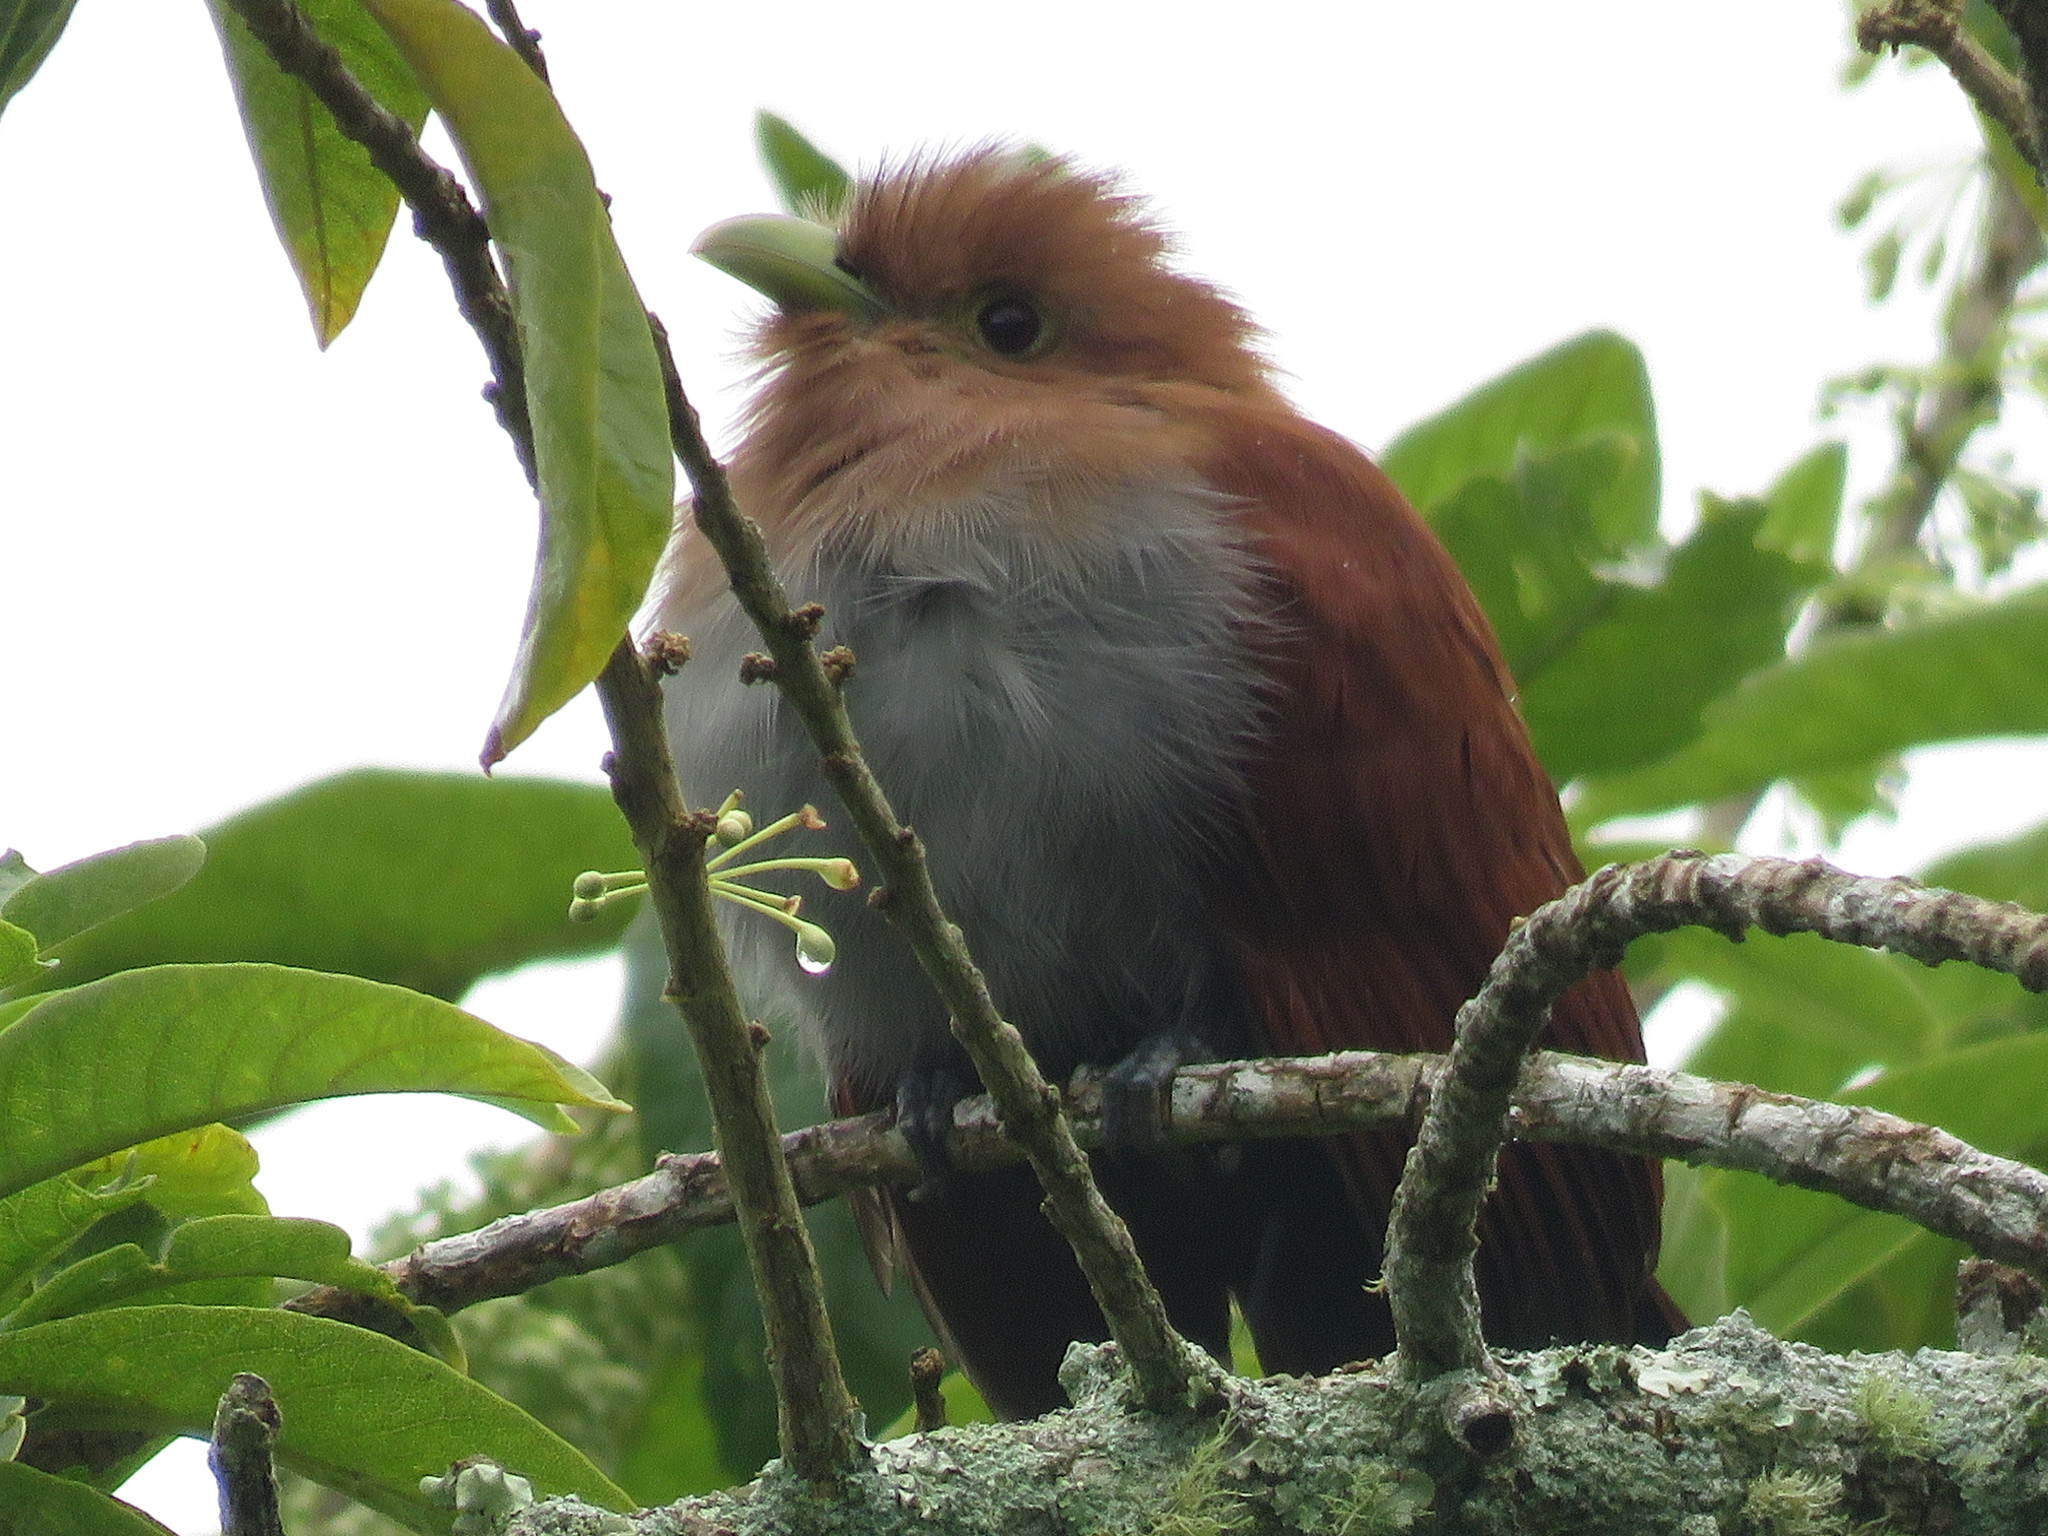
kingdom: Animalia
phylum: Chordata
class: Aves
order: Cuculiformes
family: Cuculidae
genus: Piaya
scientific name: Piaya cayana
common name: Squirrel cuckoo
